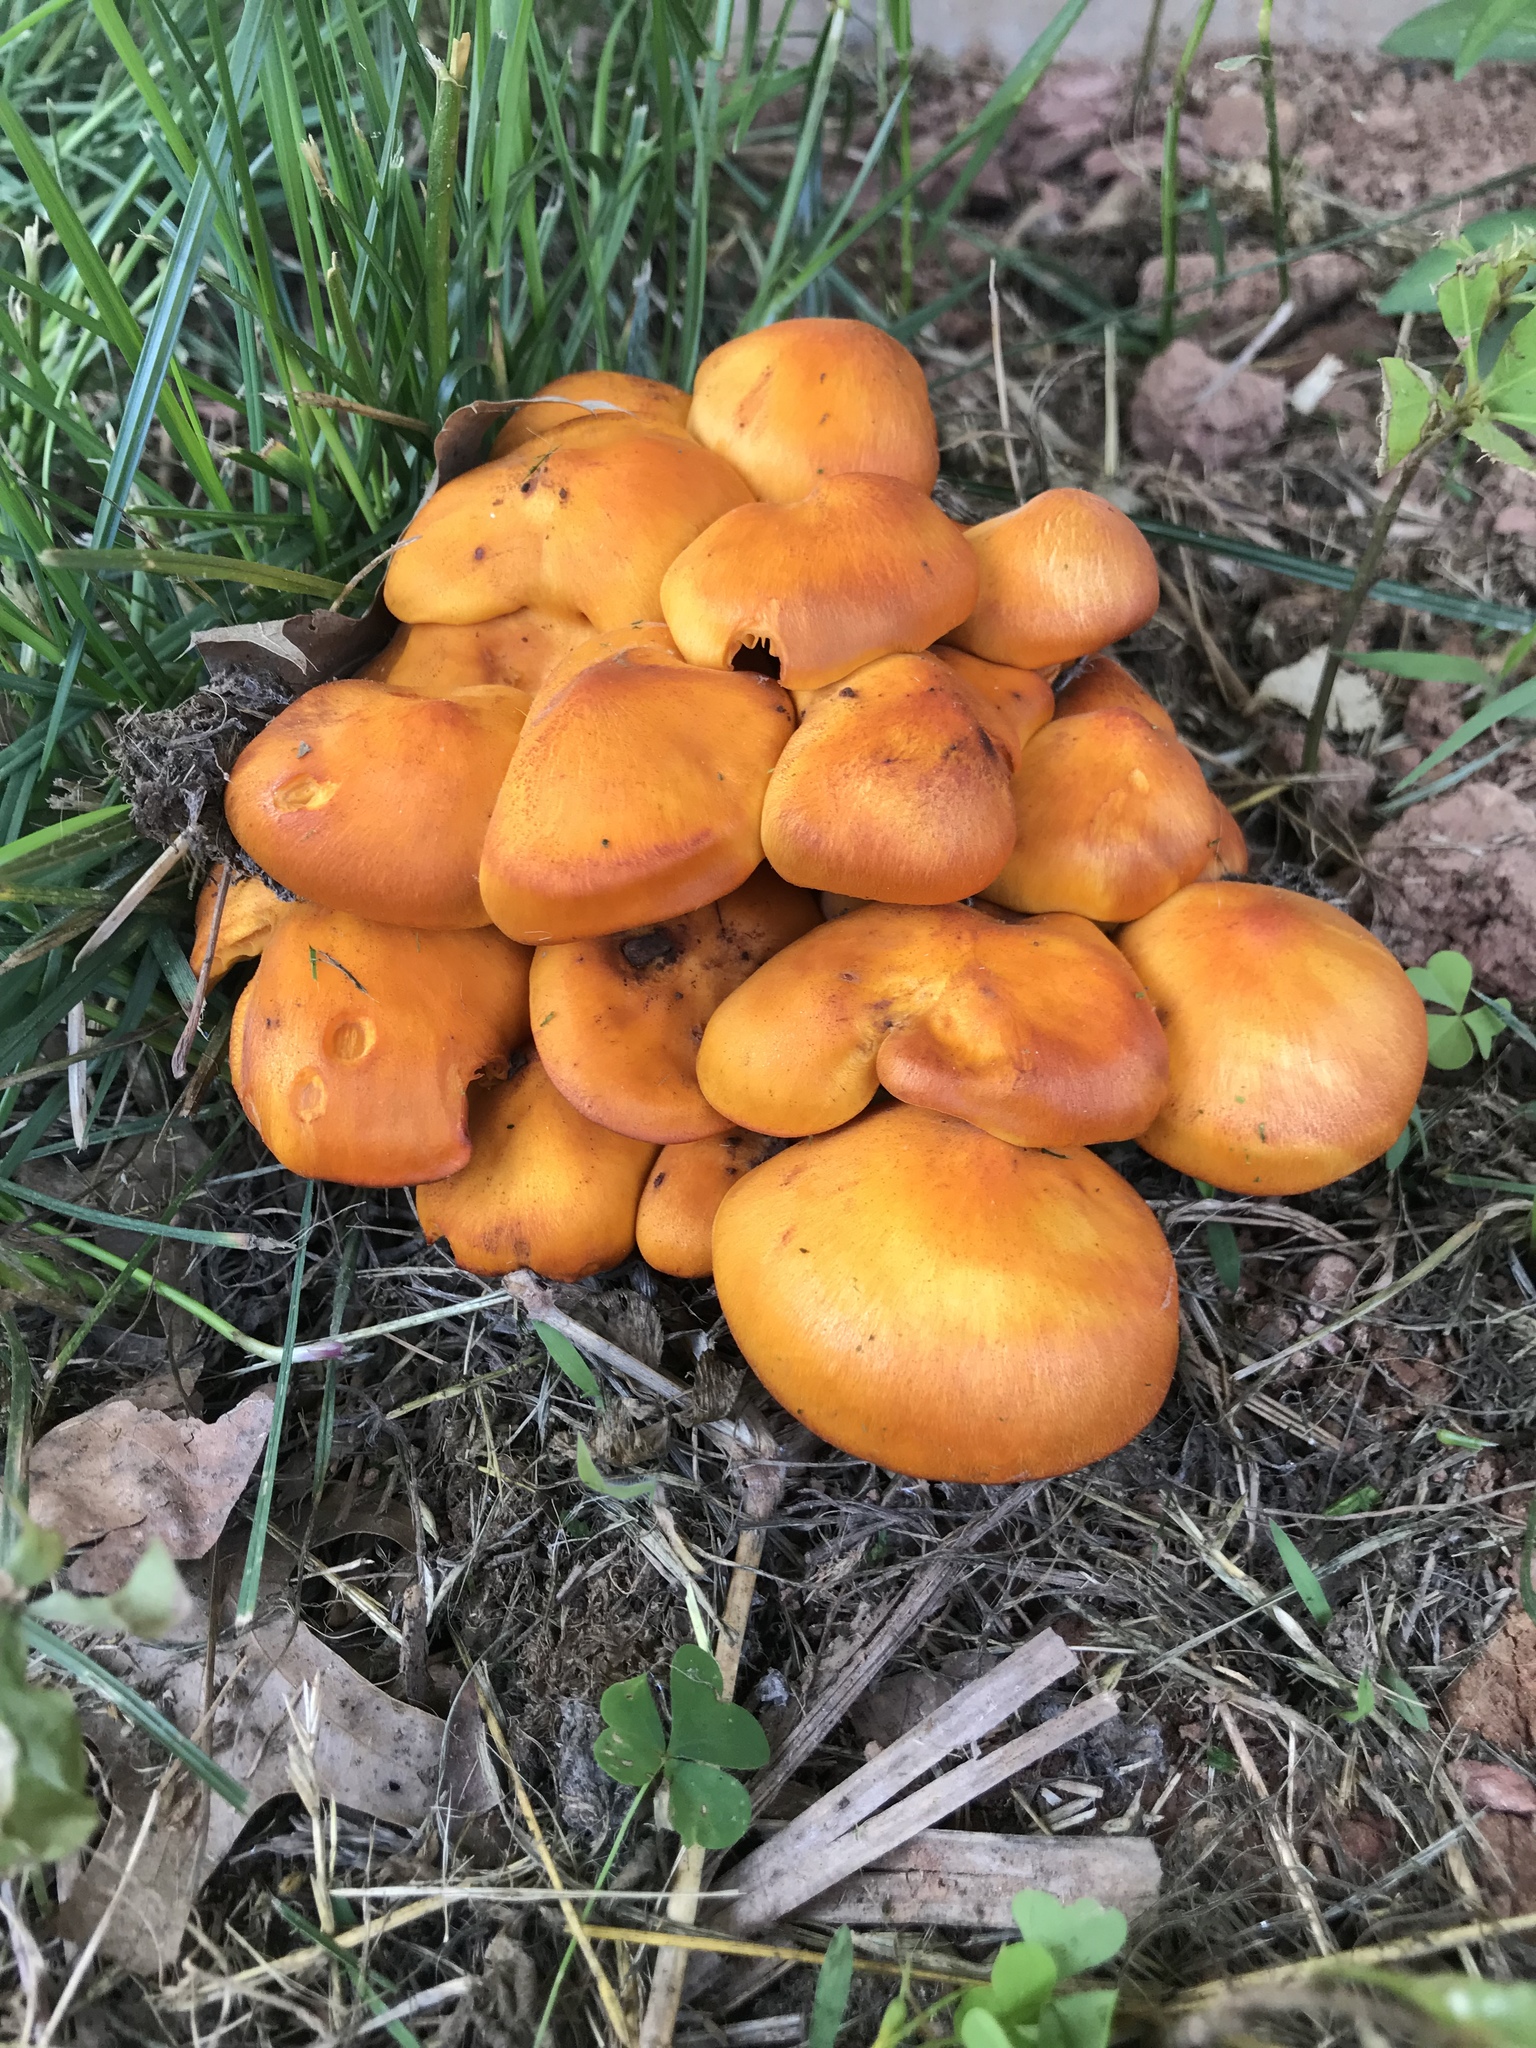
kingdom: Fungi
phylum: Basidiomycota
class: Agaricomycetes
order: Agaricales
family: Omphalotaceae
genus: Omphalotus
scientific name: Omphalotus illudens
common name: Jack o lantern
